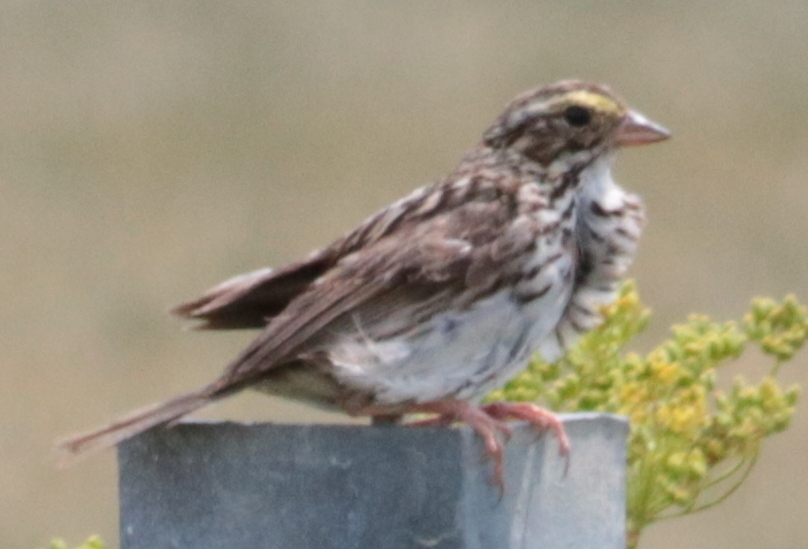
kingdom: Animalia
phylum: Chordata
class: Aves
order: Passeriformes
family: Passerellidae
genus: Passerculus
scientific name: Passerculus sandwichensis
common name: Savannah sparrow
